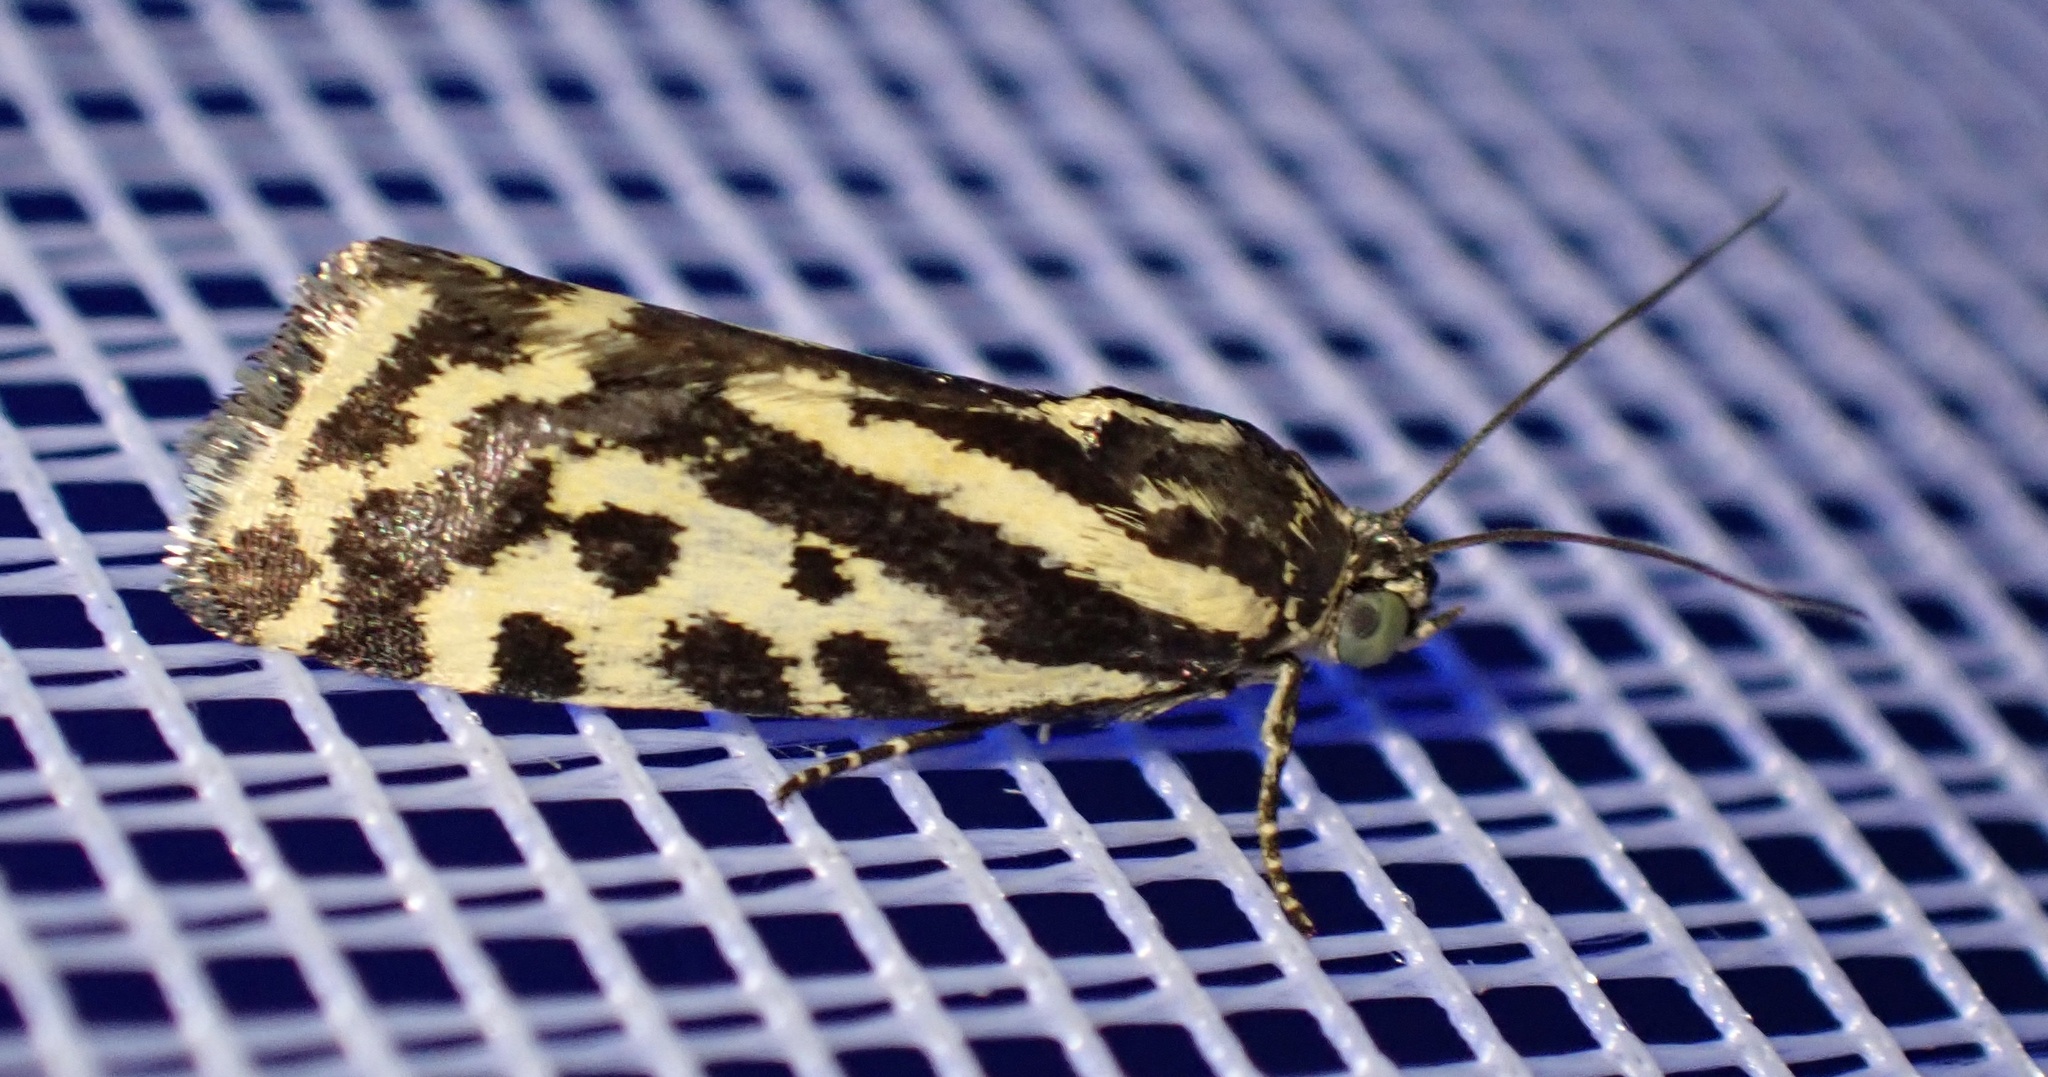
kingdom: Animalia
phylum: Arthropoda
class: Insecta
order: Lepidoptera
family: Noctuidae
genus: Acontia
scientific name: Acontia trabealis
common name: Spotted sulphur
